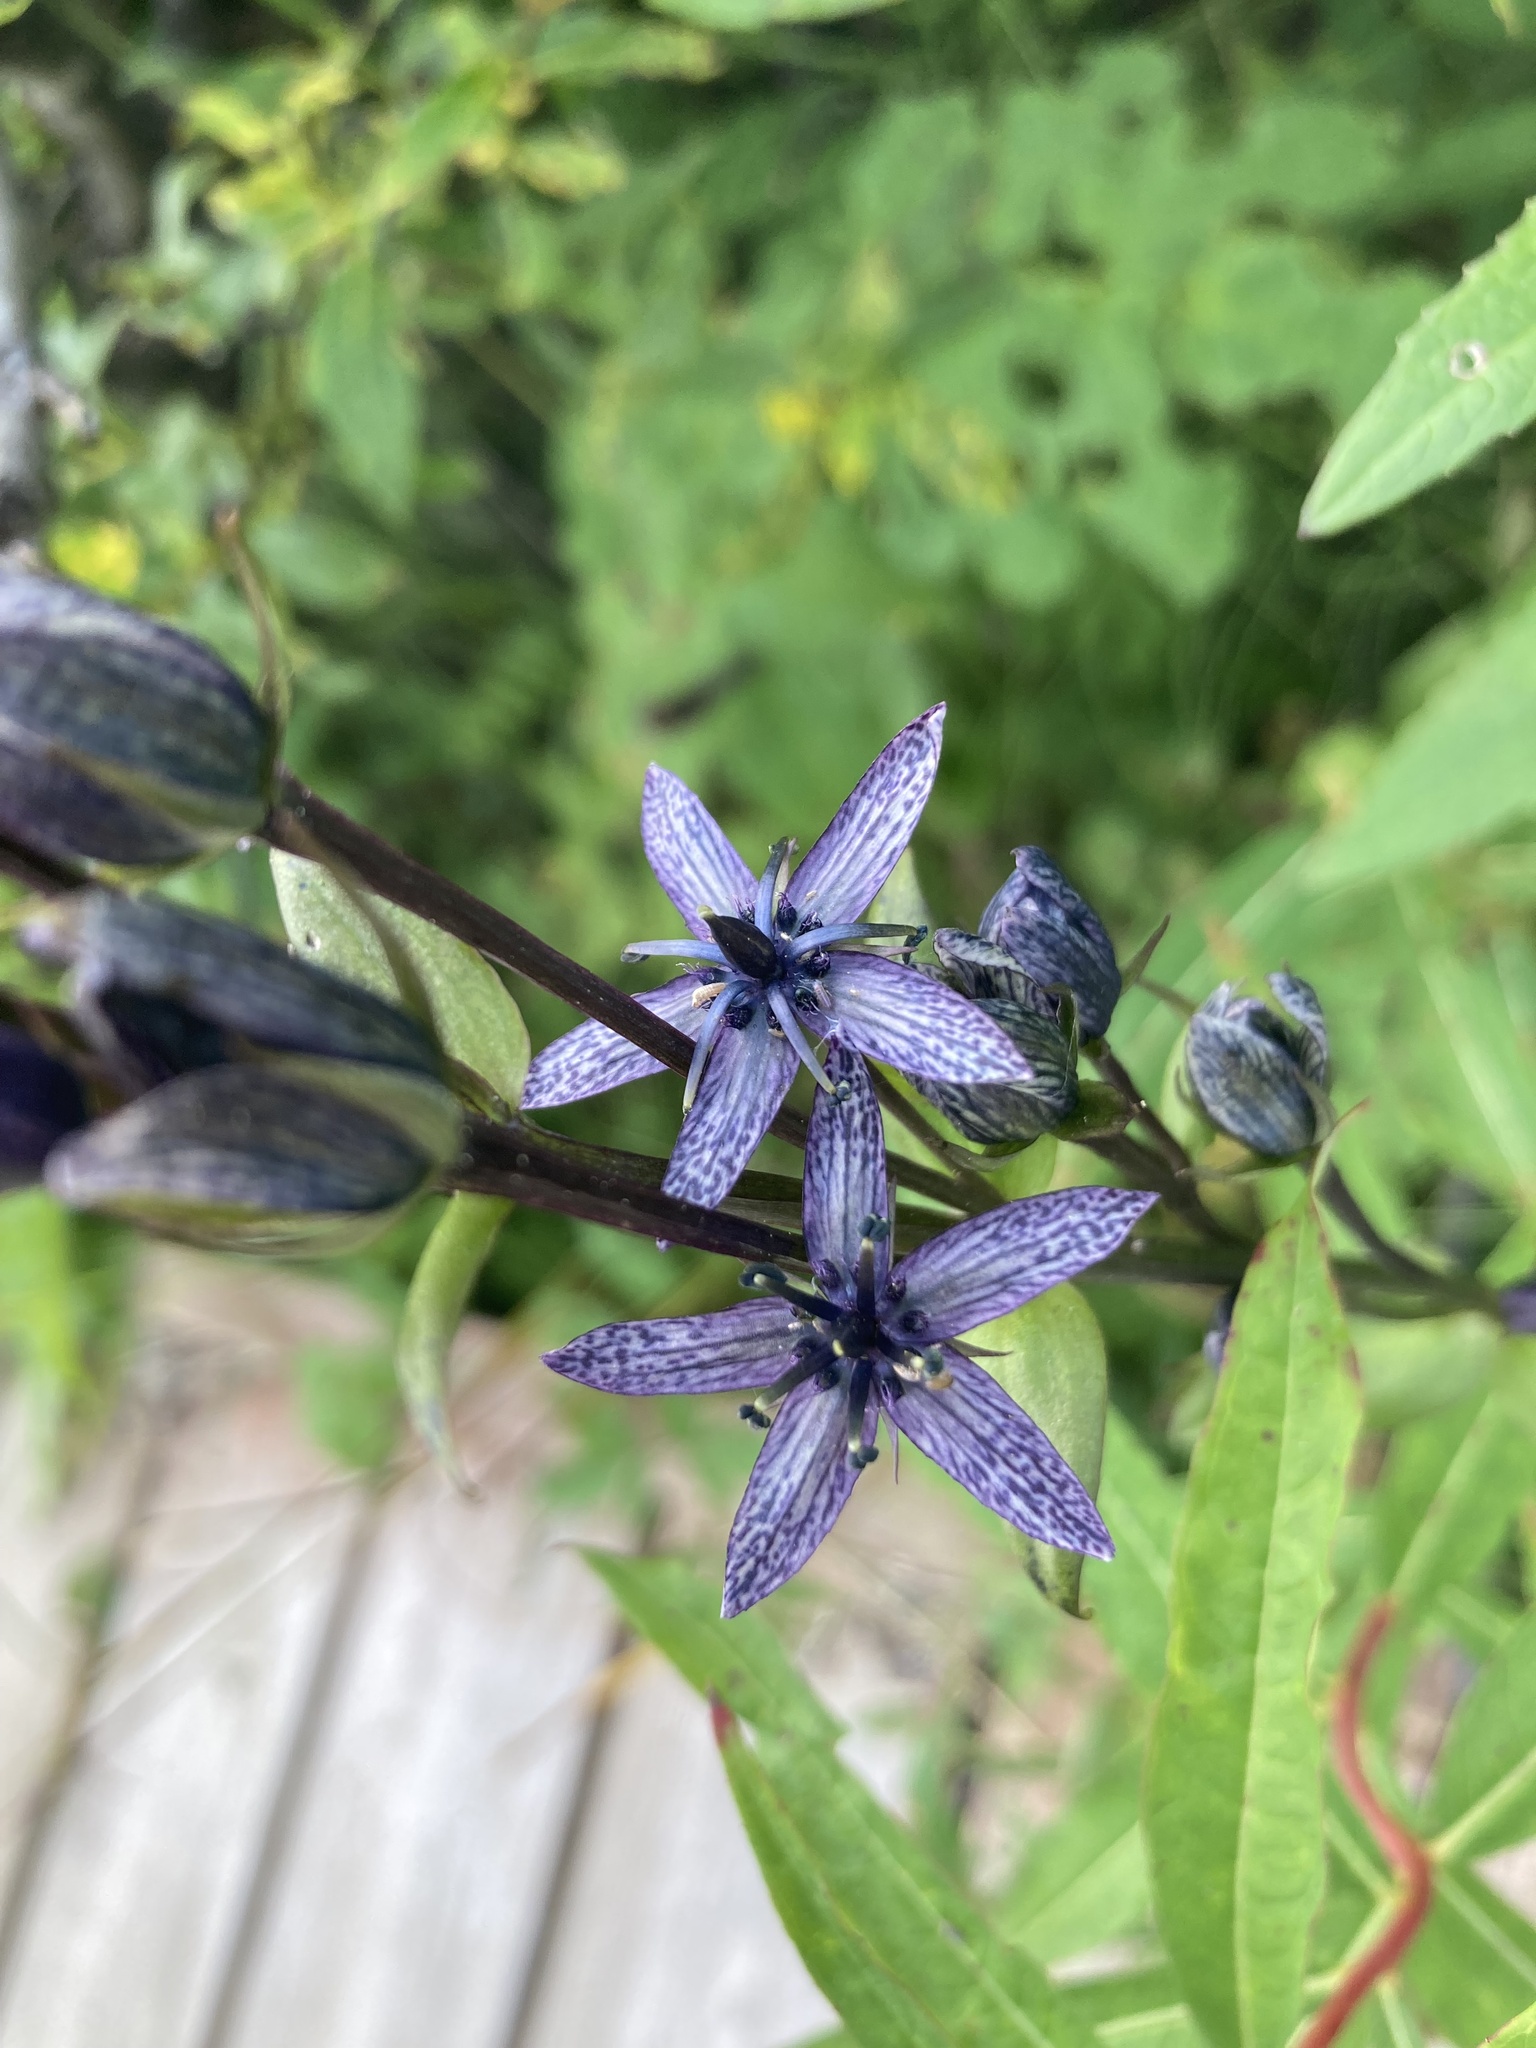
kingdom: Plantae
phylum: Tracheophyta
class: Magnoliopsida
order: Gentianales
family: Gentianaceae
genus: Swertia
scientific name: Swertia perennis
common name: Alpine bog swertia
